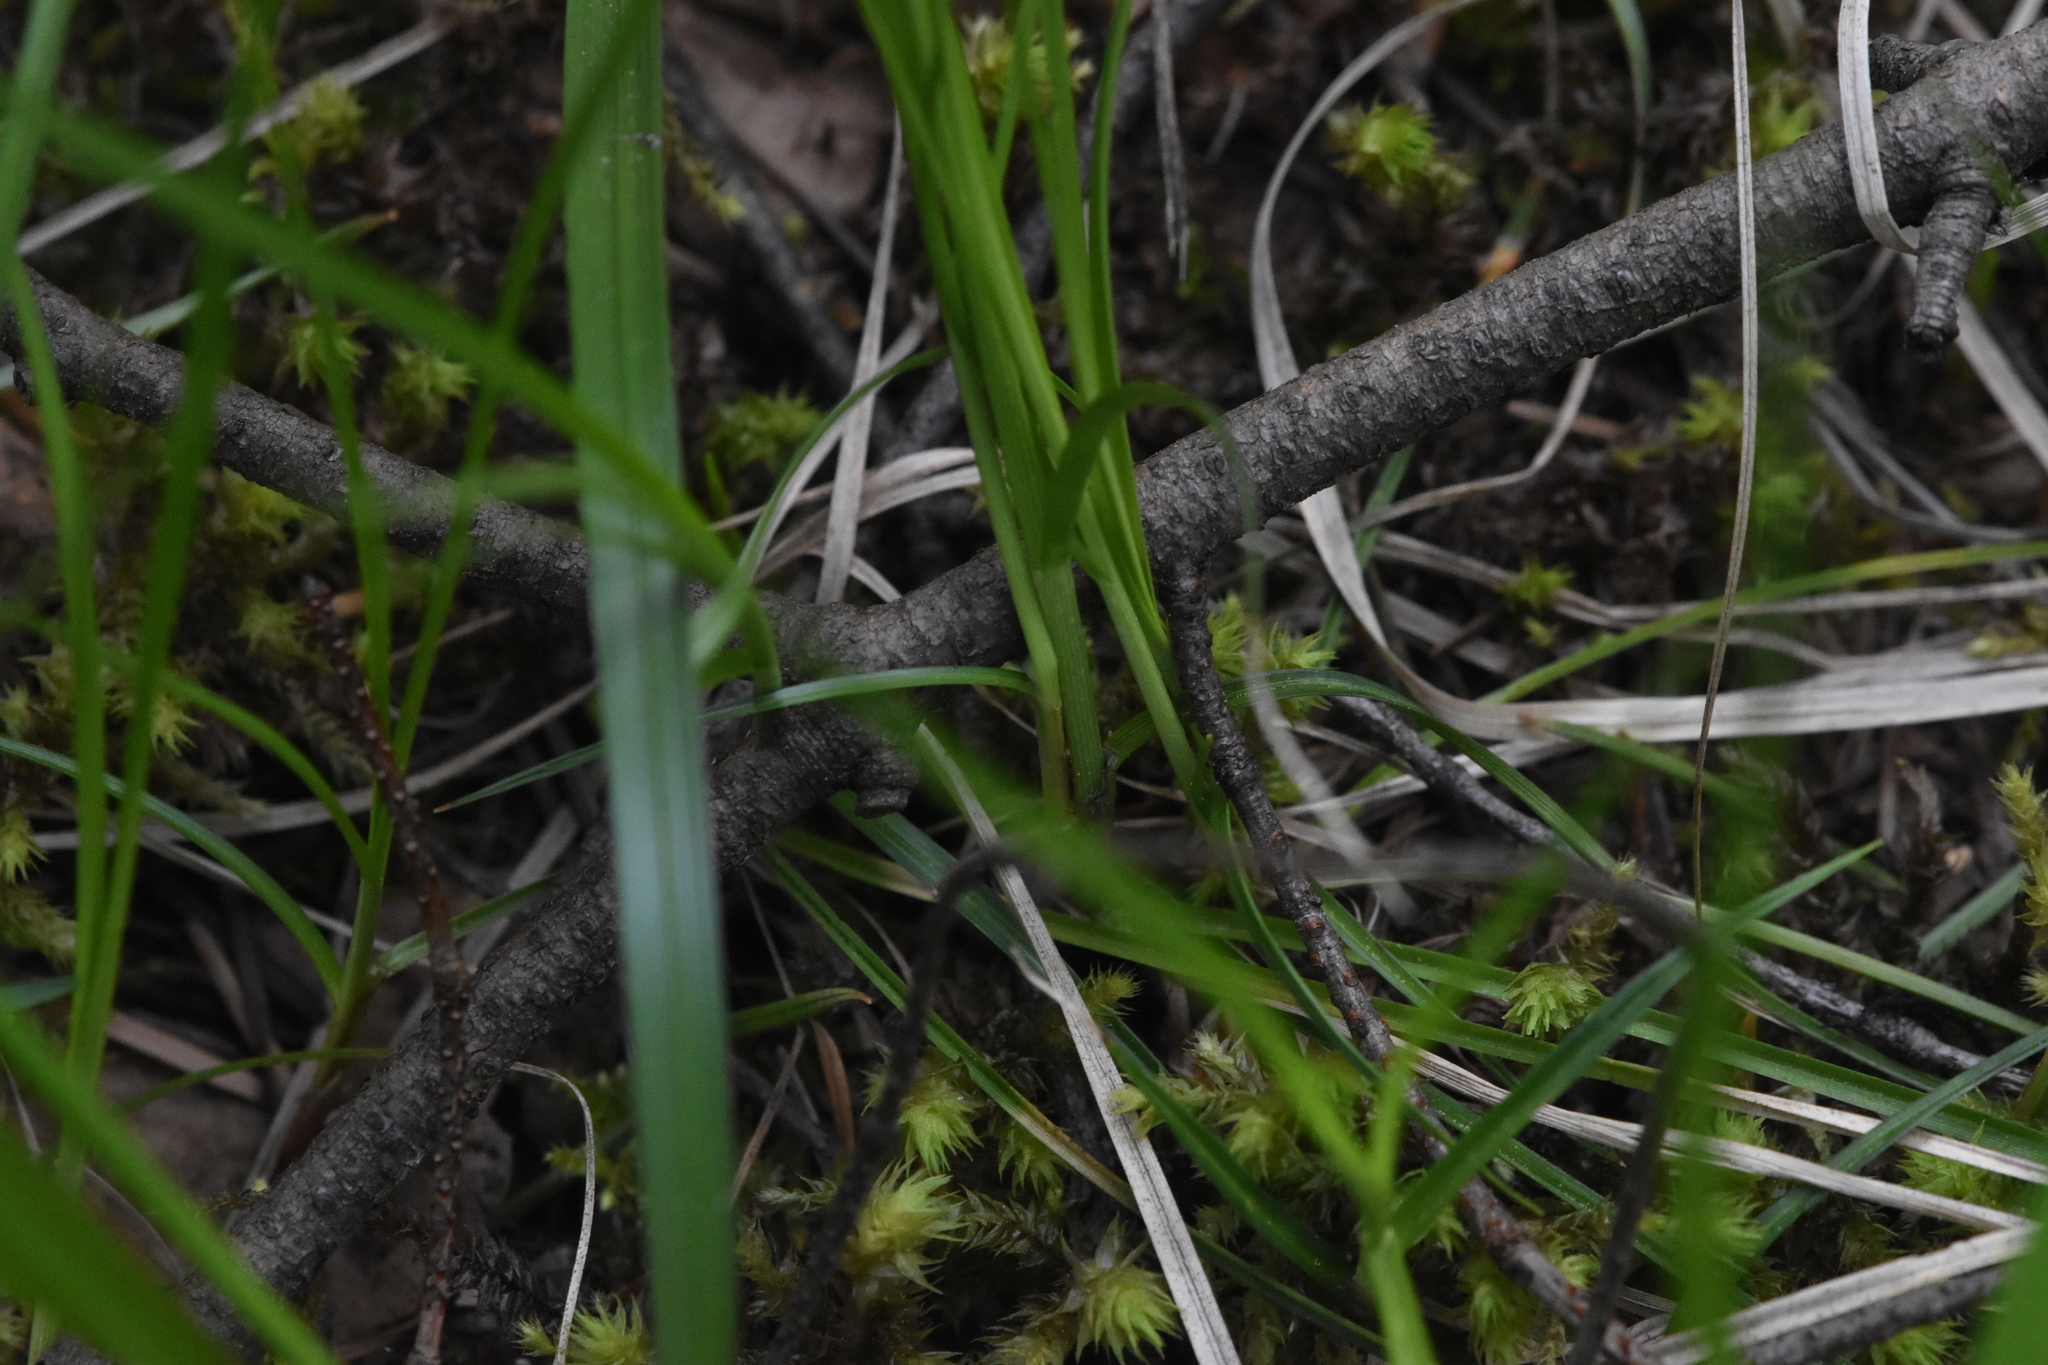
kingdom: Plantae
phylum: Tracheophyta
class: Liliopsida
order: Poales
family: Cyperaceae
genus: Carex
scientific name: Carex inops
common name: Long-stolon sedge
